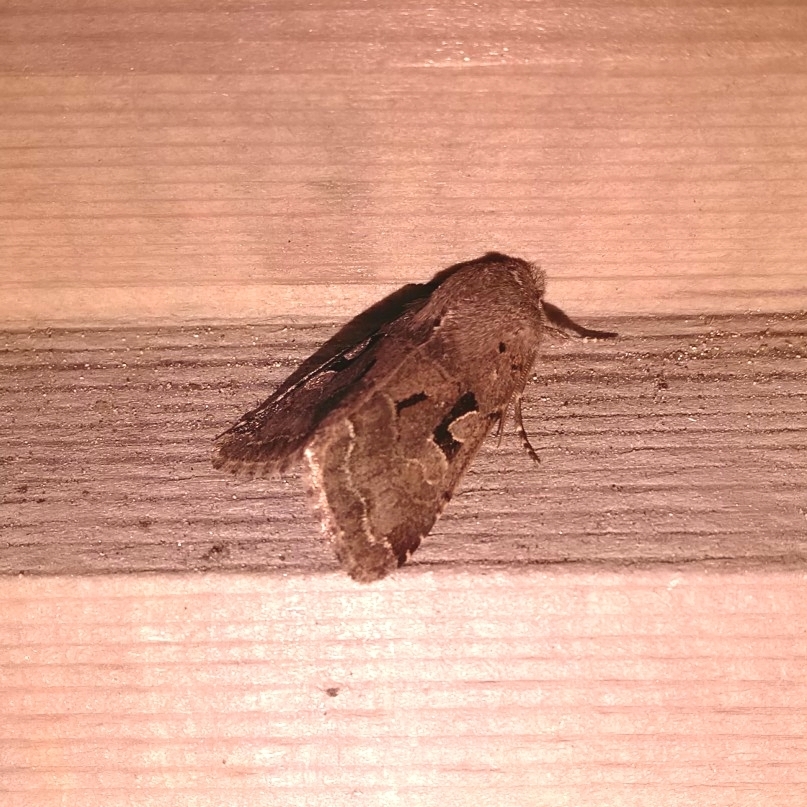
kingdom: Animalia
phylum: Arthropoda
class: Insecta
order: Lepidoptera
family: Noctuidae
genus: Orthosia
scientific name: Orthosia gothica
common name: Hebrew character
